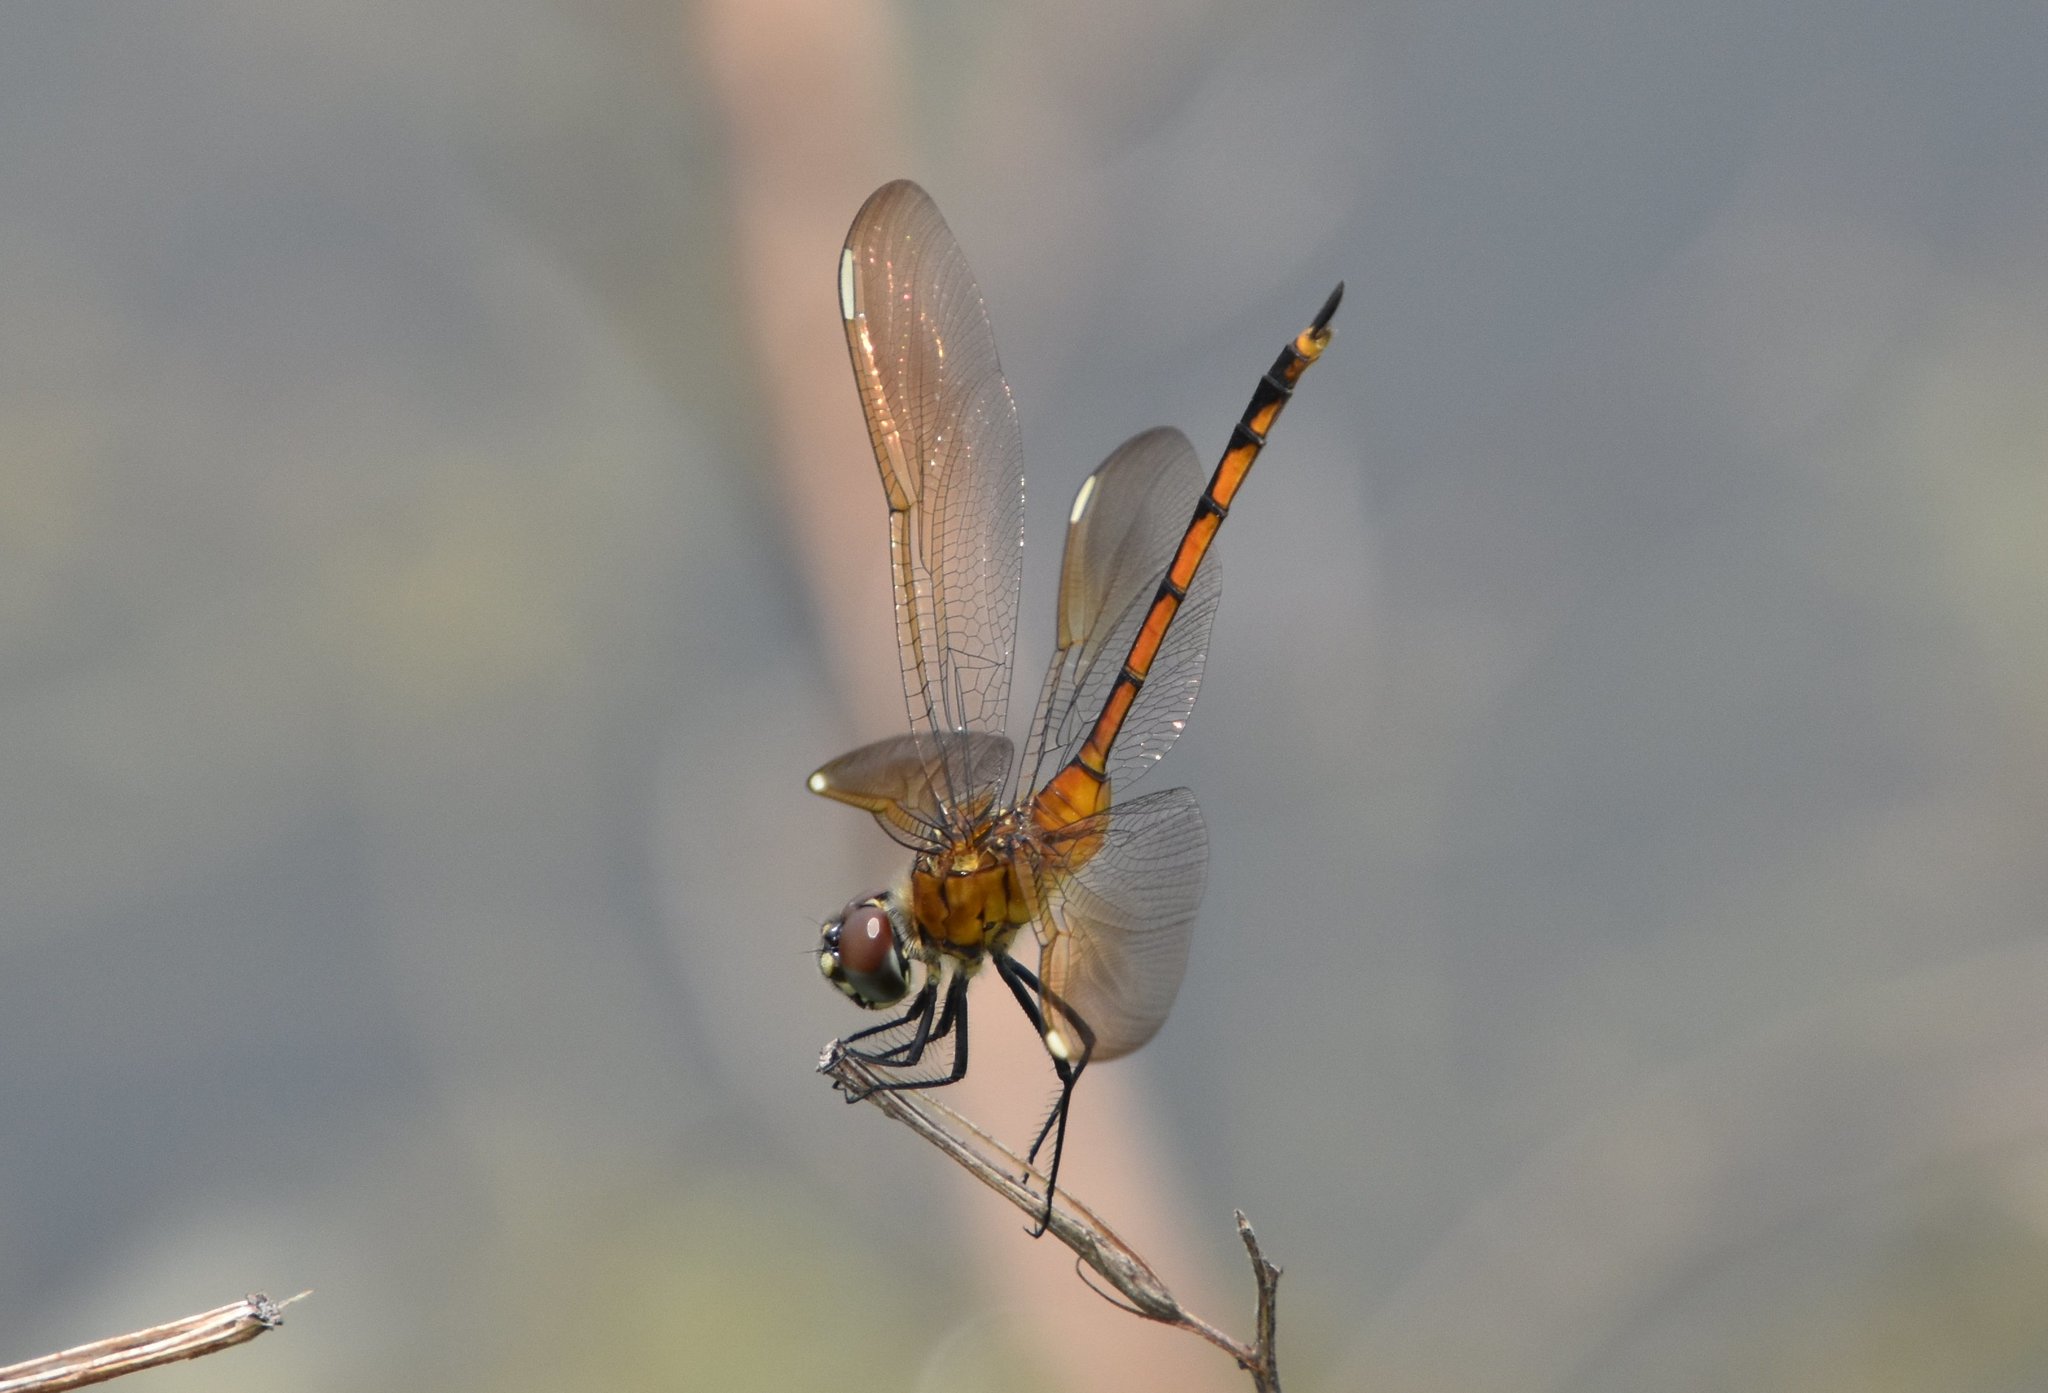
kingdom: Animalia
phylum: Arthropoda
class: Insecta
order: Odonata
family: Libellulidae
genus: Brachymesia
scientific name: Brachymesia gravida
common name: Four-spotted pennant
